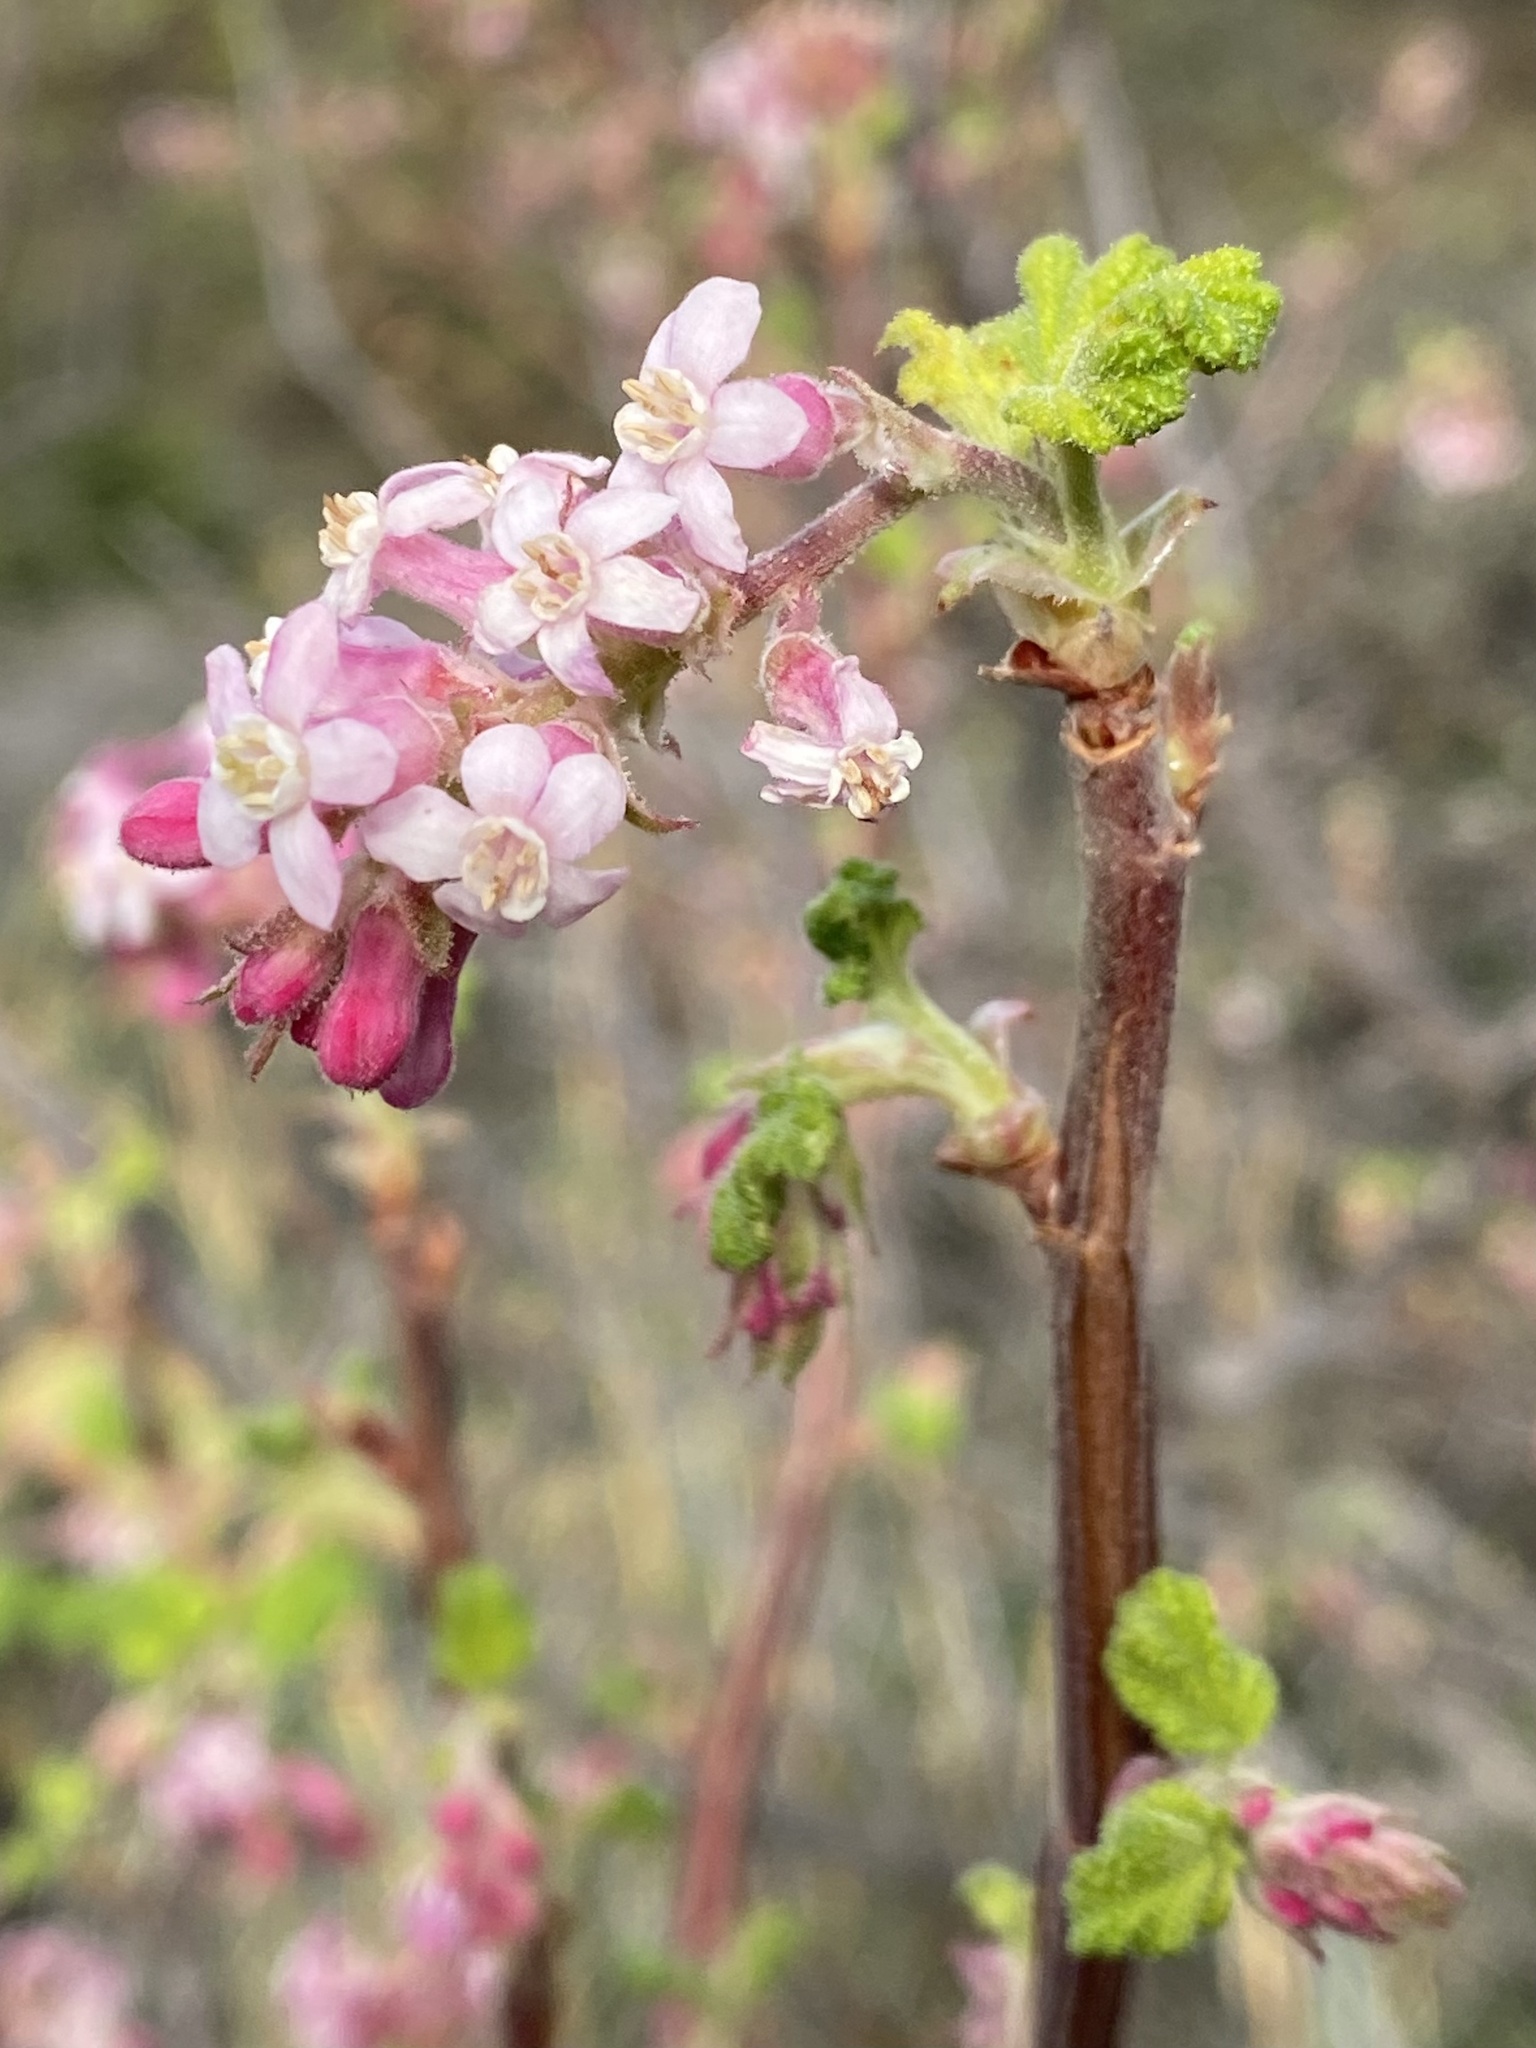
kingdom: Plantae
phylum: Tracheophyta
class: Magnoliopsida
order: Saxifragales
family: Grossulariaceae
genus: Ribes
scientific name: Ribes malvaceum
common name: Chaparral currant
